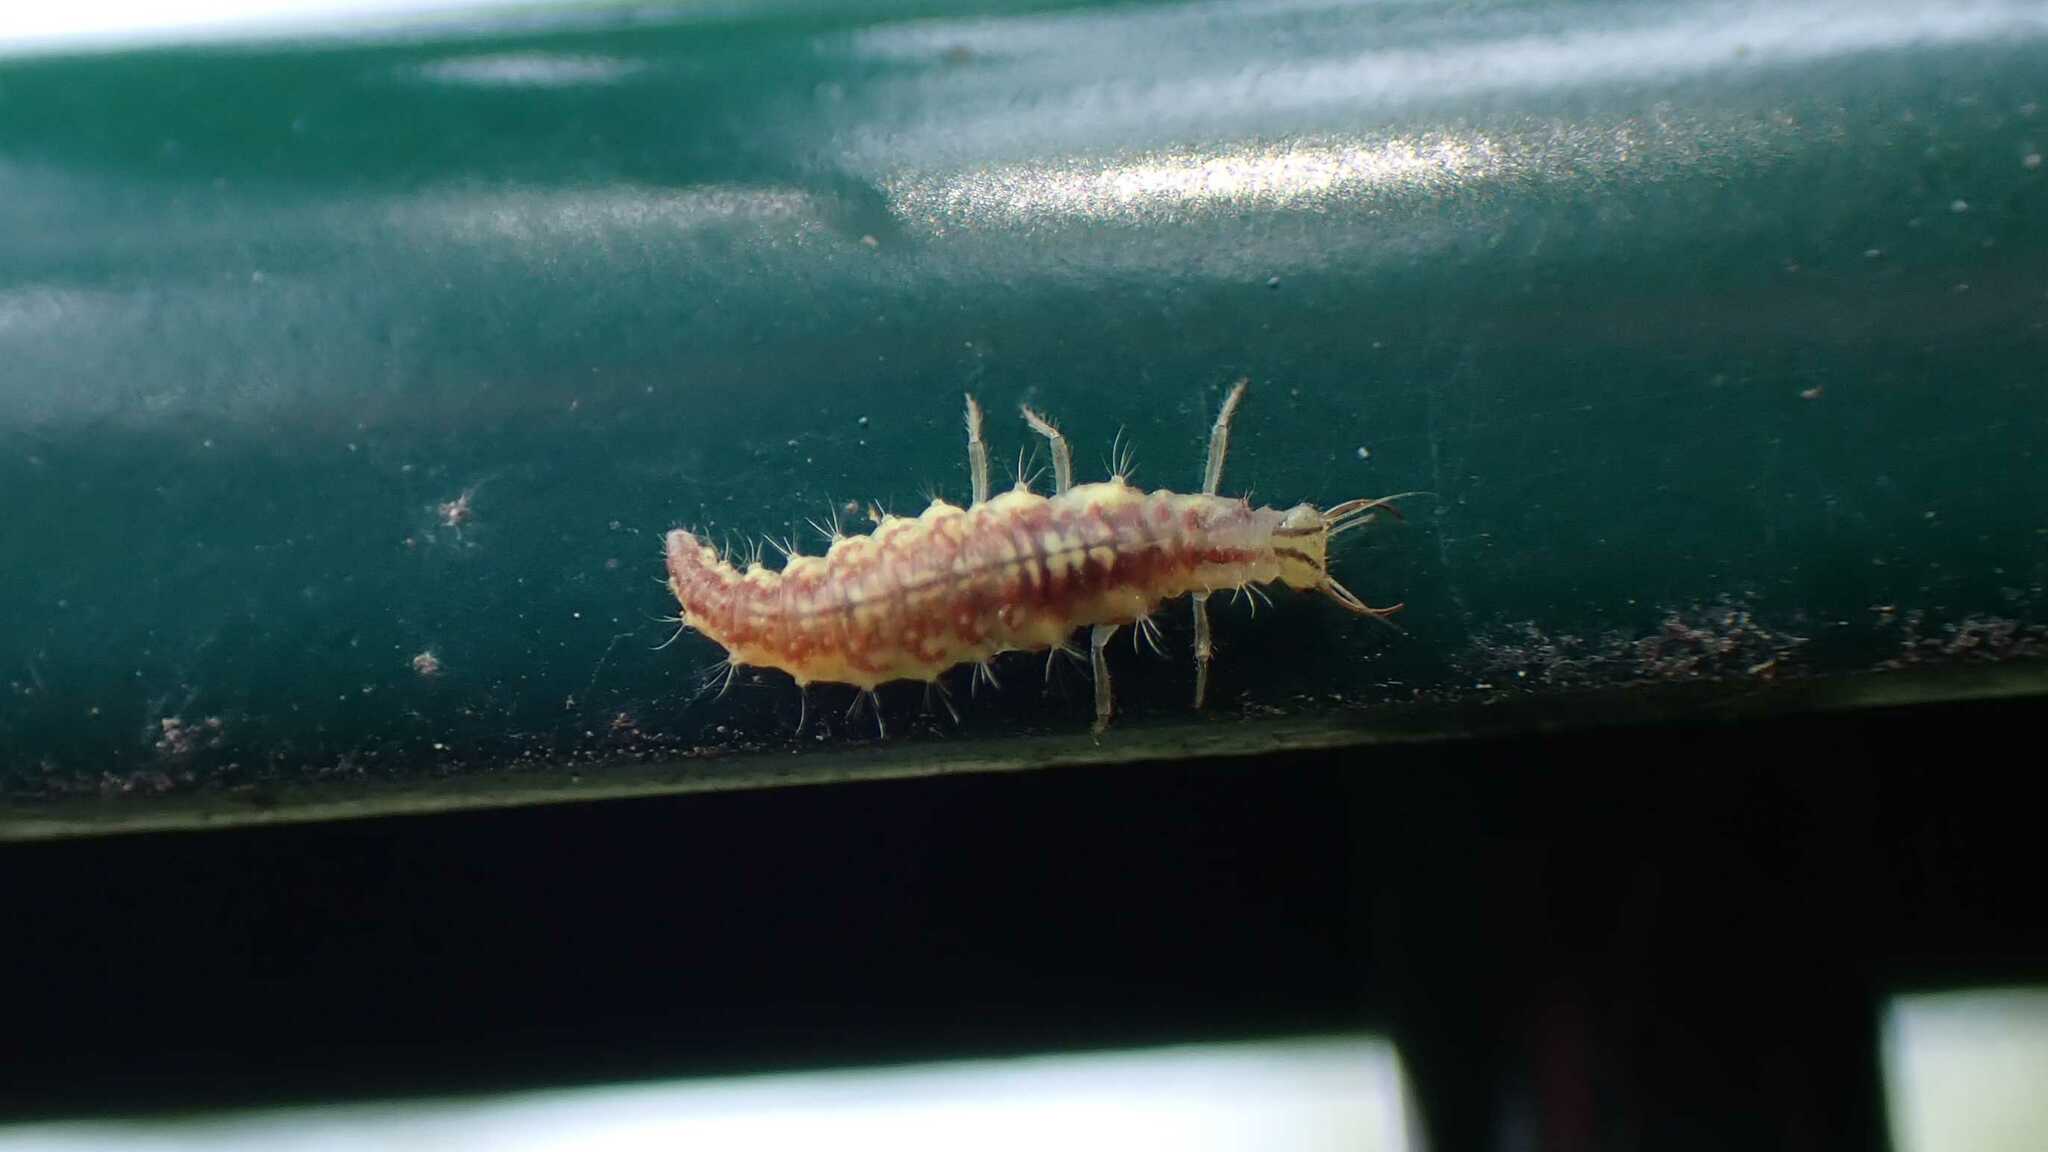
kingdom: Animalia
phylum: Arthropoda
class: Insecta
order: Neuroptera
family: Chrysopidae
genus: Chrysoperla
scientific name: Chrysoperla
